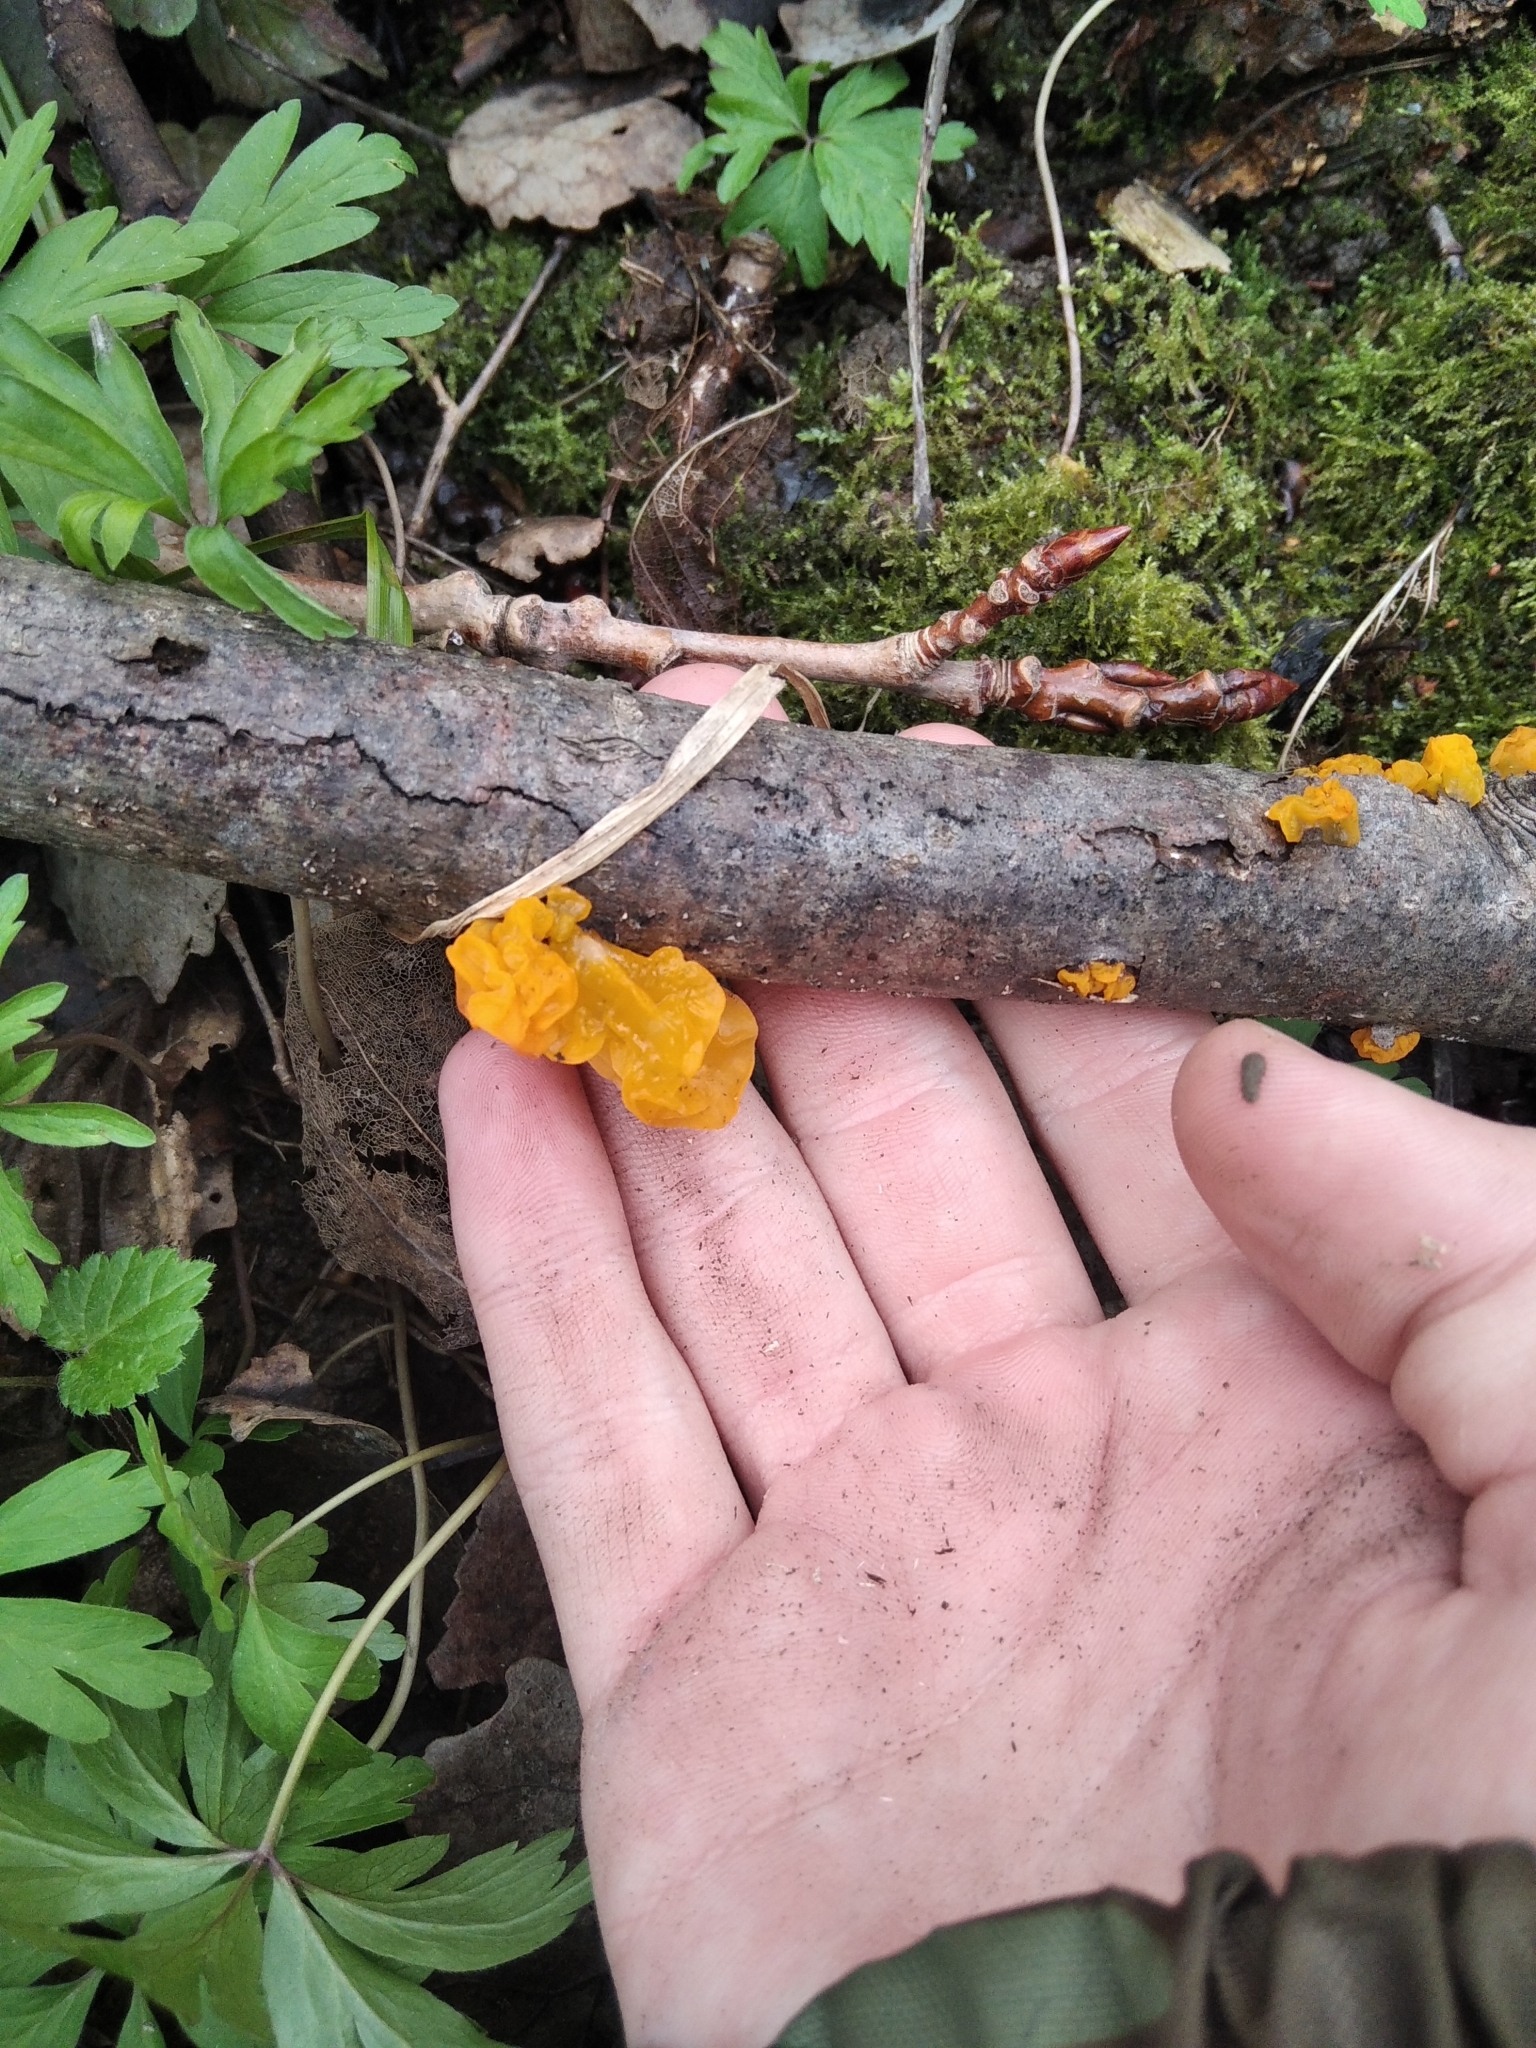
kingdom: Fungi
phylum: Basidiomycota
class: Tremellomycetes
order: Tremellales
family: Tremellaceae
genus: Tremella
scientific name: Tremella mesenterica
